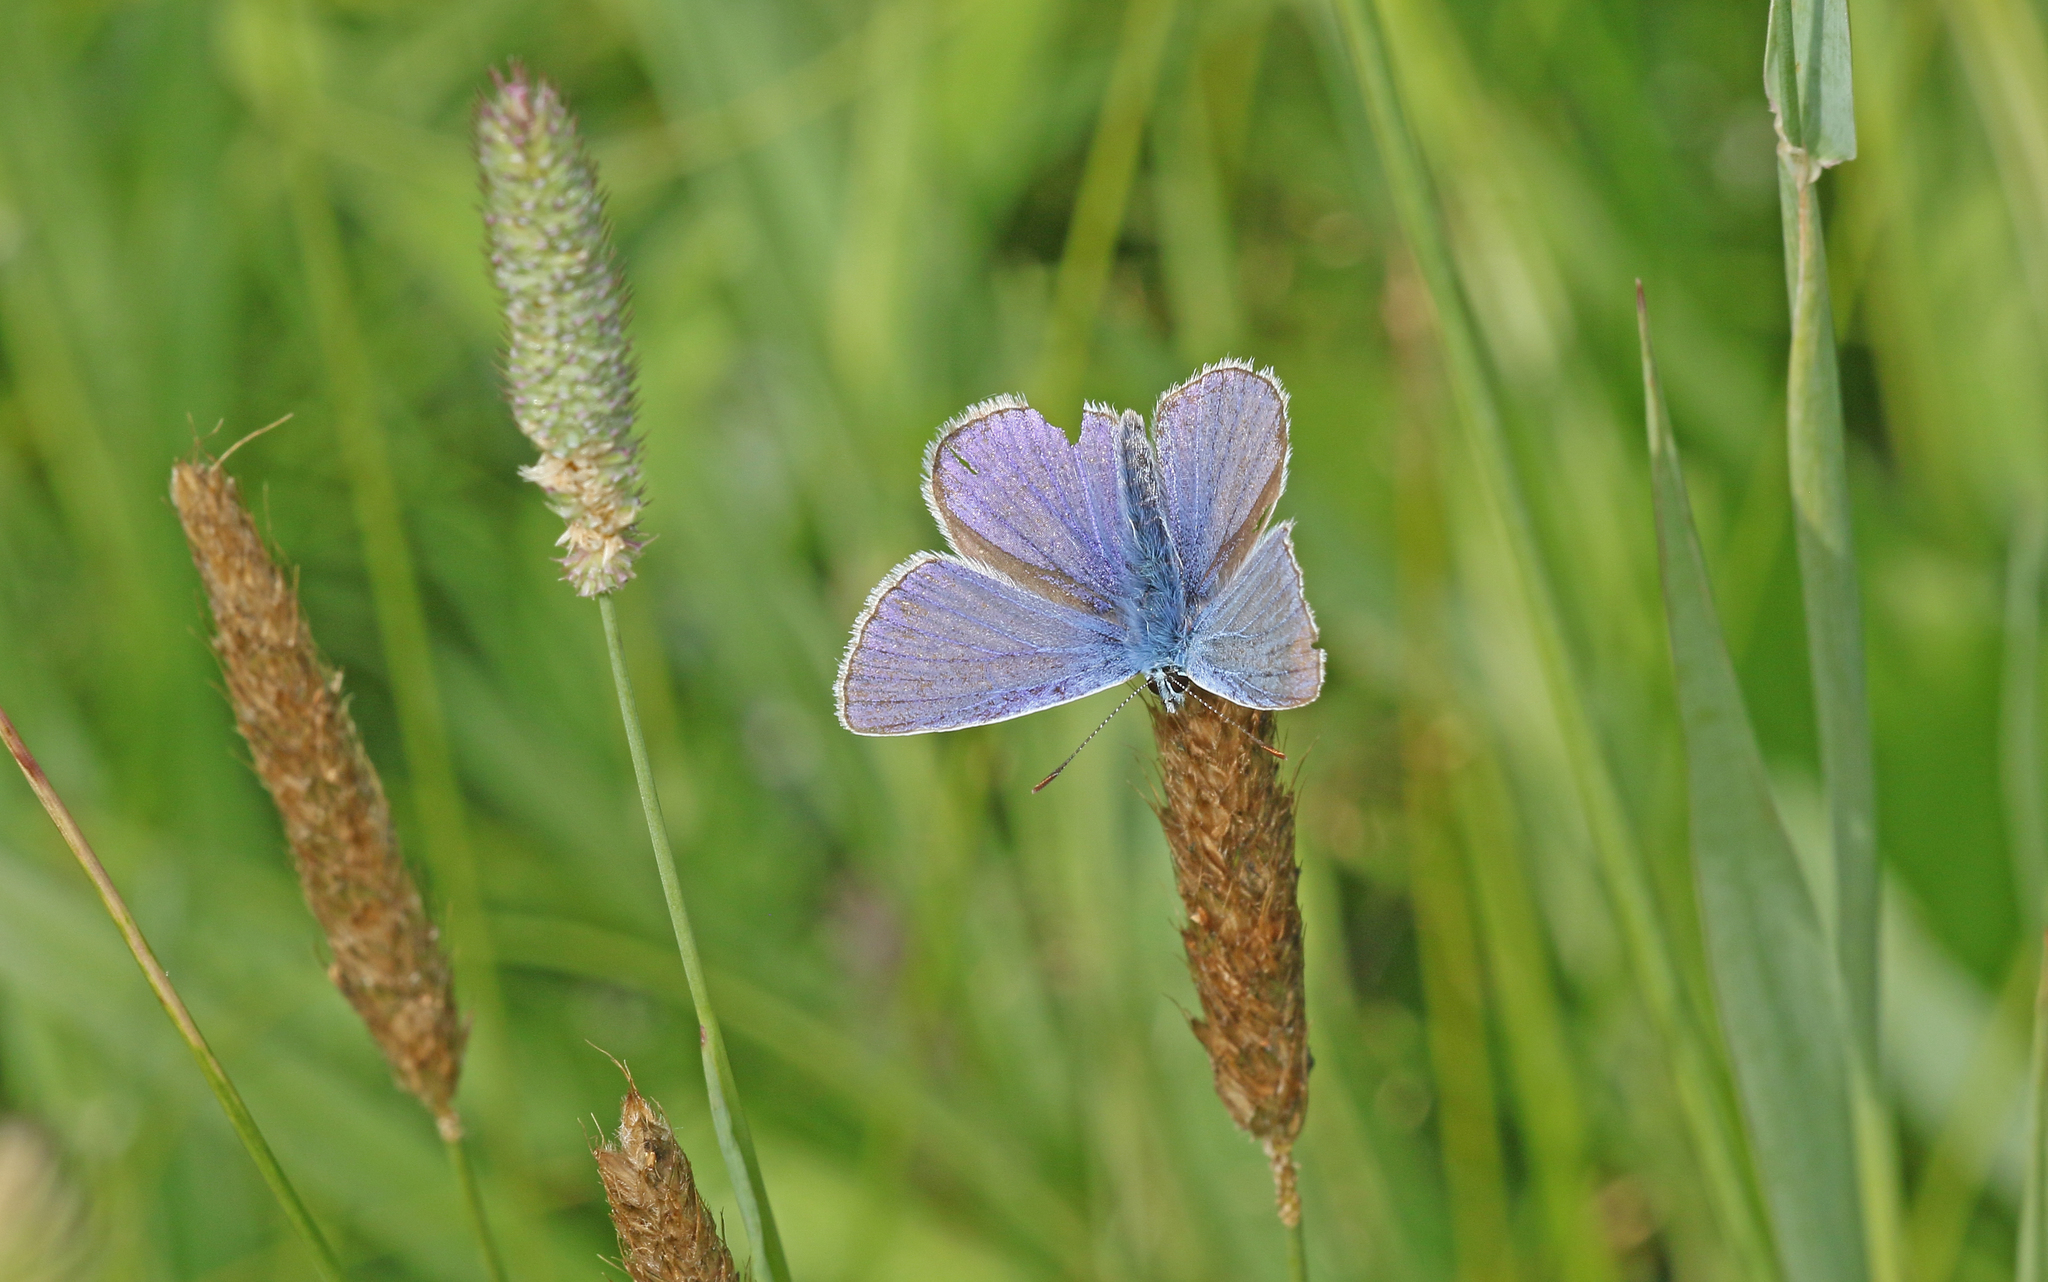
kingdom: Animalia
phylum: Arthropoda
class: Insecta
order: Lepidoptera
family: Lycaenidae
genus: Polyommatus
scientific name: Polyommatus icarus
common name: Common blue
